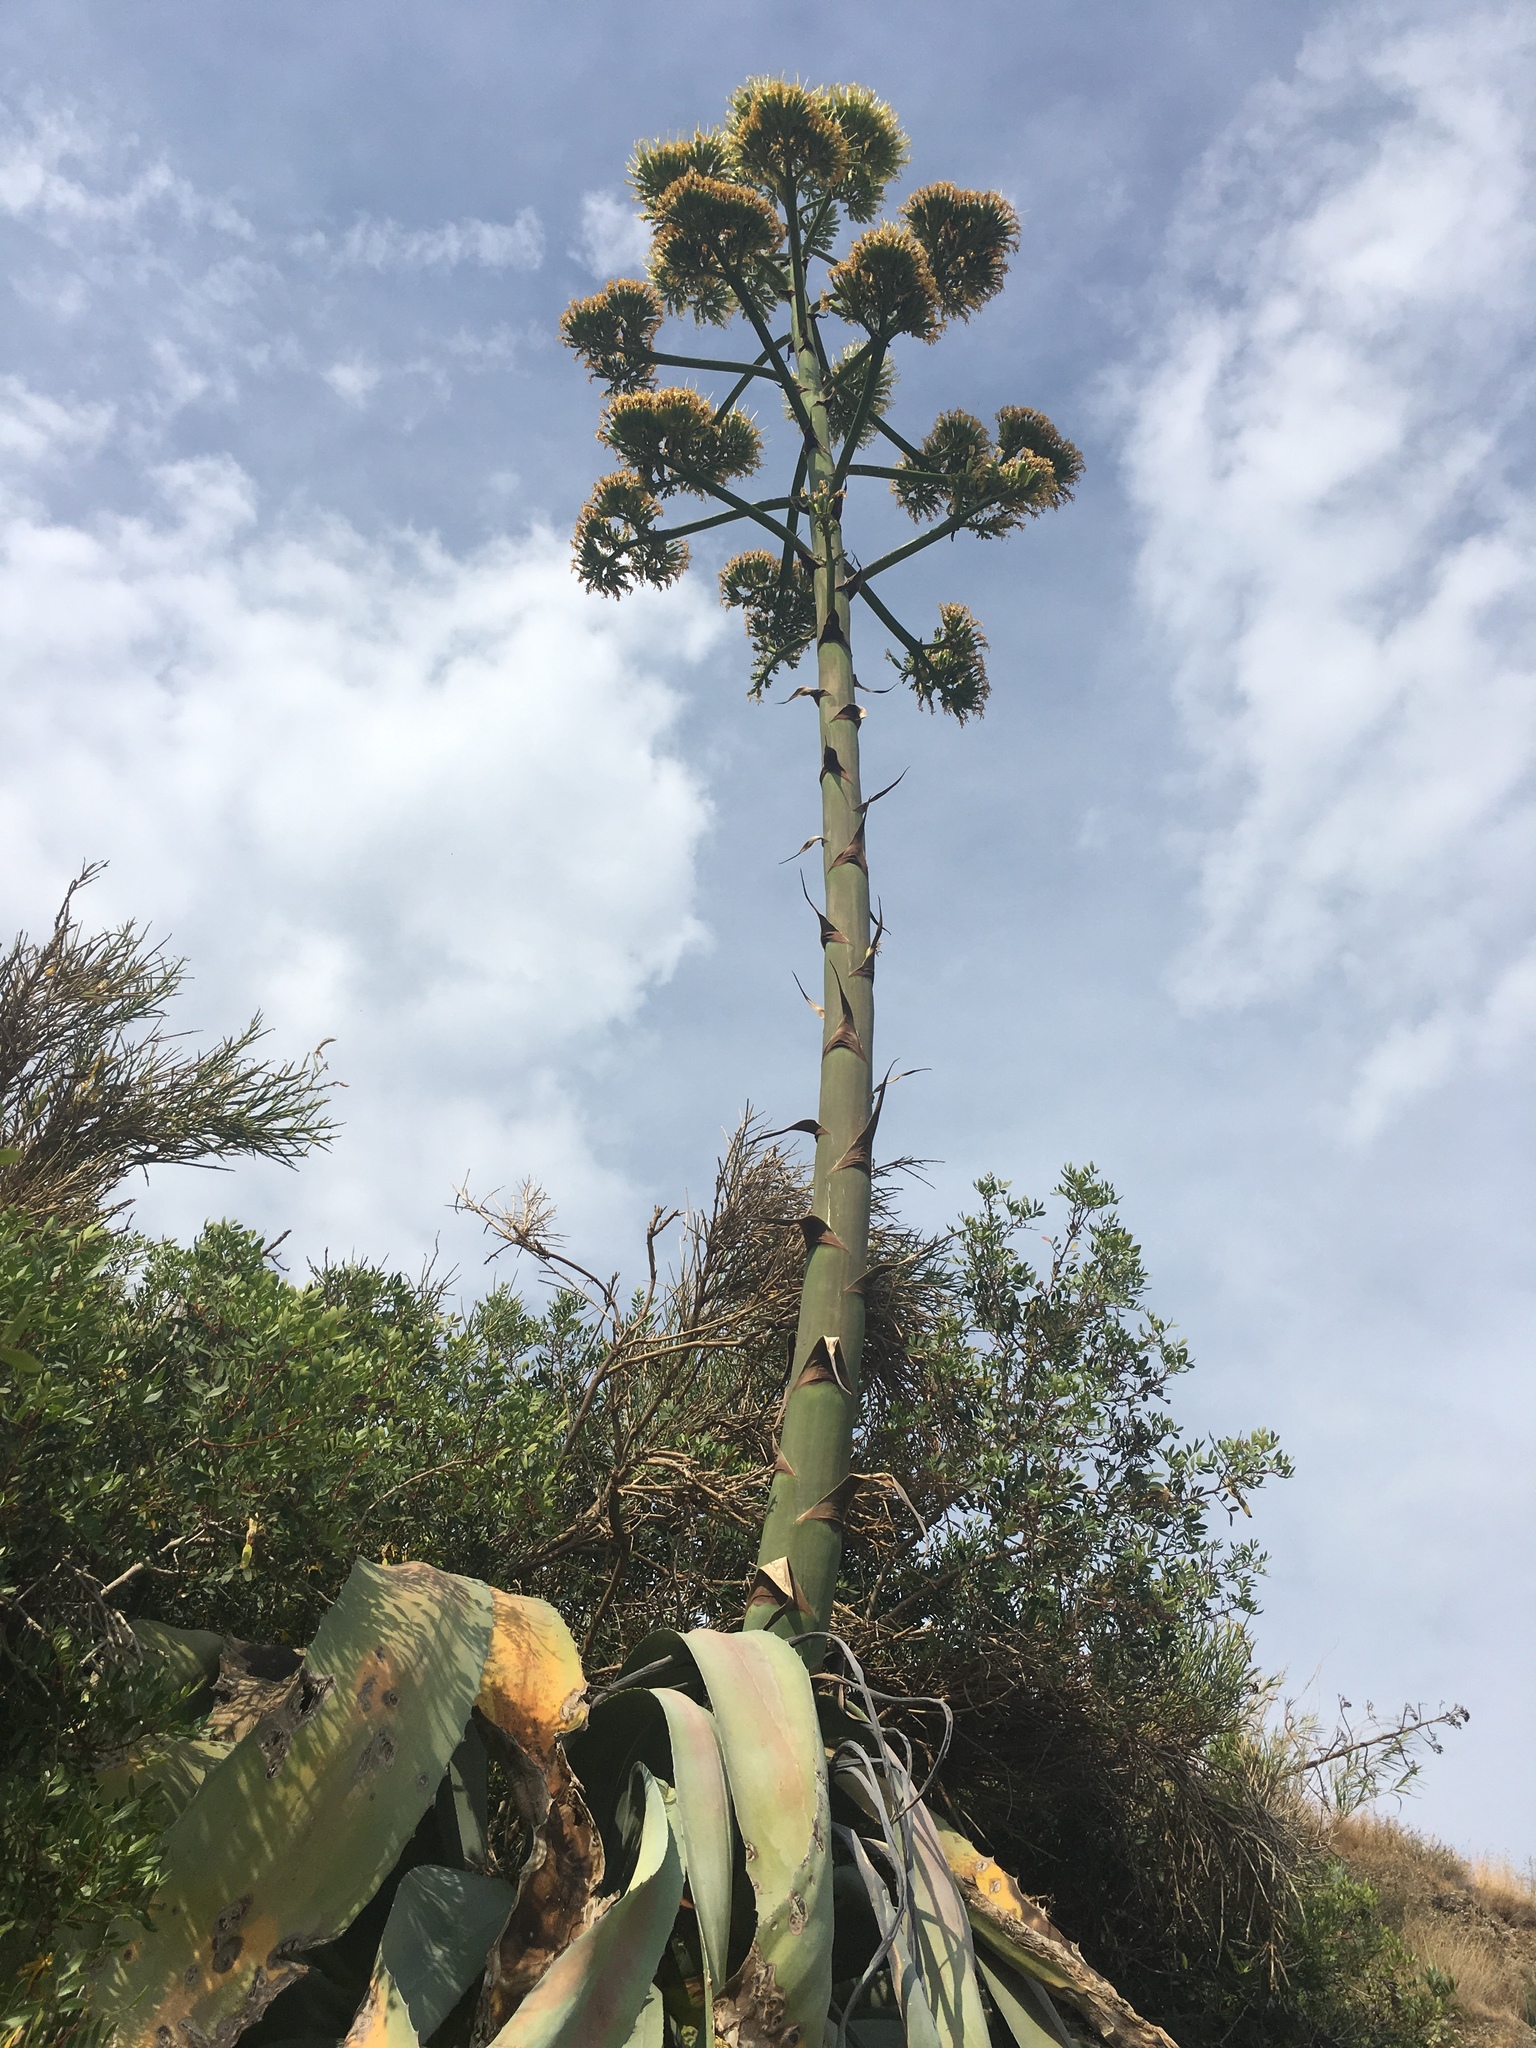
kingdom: Plantae
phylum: Tracheophyta
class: Liliopsida
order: Asparagales
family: Asparagaceae
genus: Agave
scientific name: Agave americana
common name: Centuryplant
